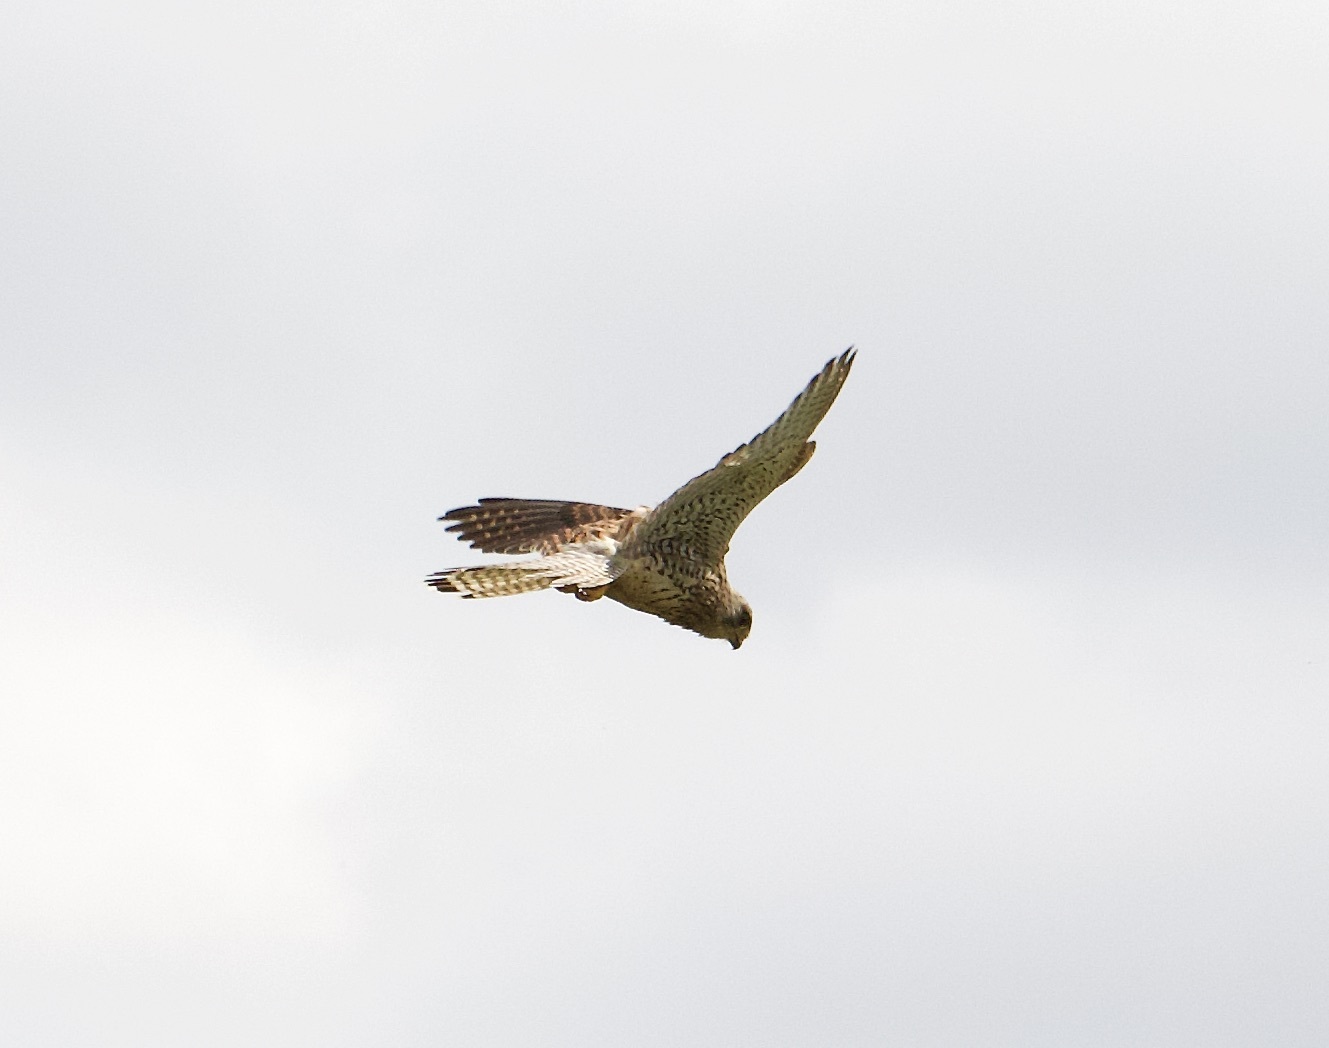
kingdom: Animalia
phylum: Chordata
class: Aves
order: Falconiformes
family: Falconidae
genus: Falco
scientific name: Falco tinnunculus
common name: Common kestrel
